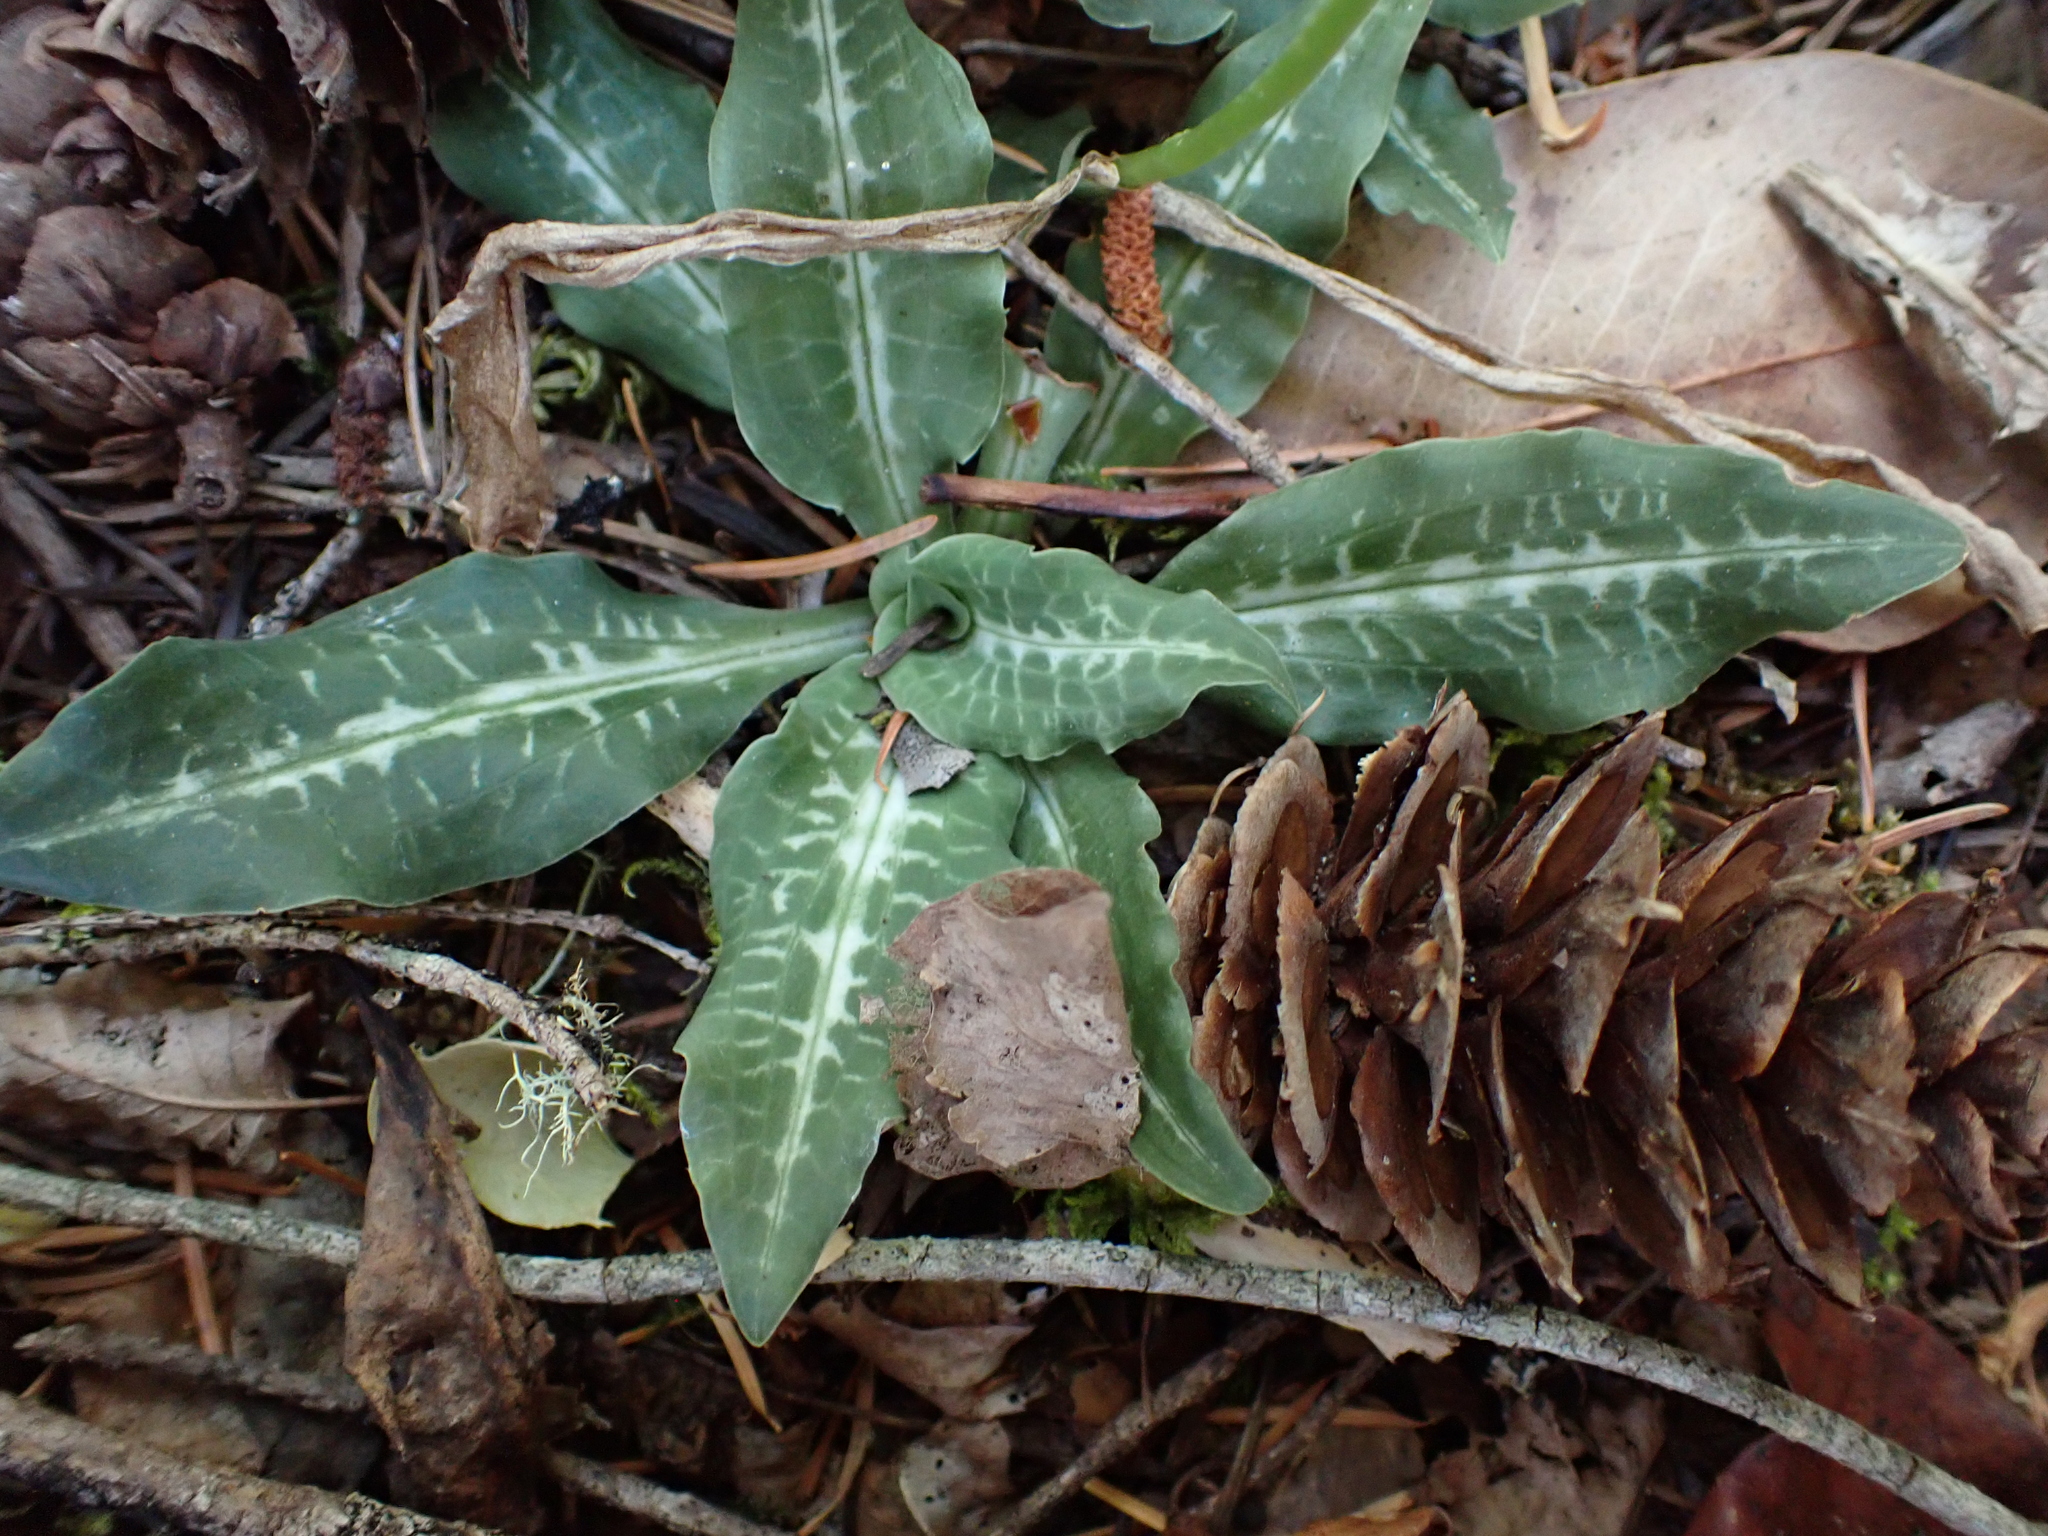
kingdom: Plantae
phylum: Tracheophyta
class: Liliopsida
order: Asparagales
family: Orchidaceae
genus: Goodyera
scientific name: Goodyera oblongifolia
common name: Giant rattlesnake-plantain
